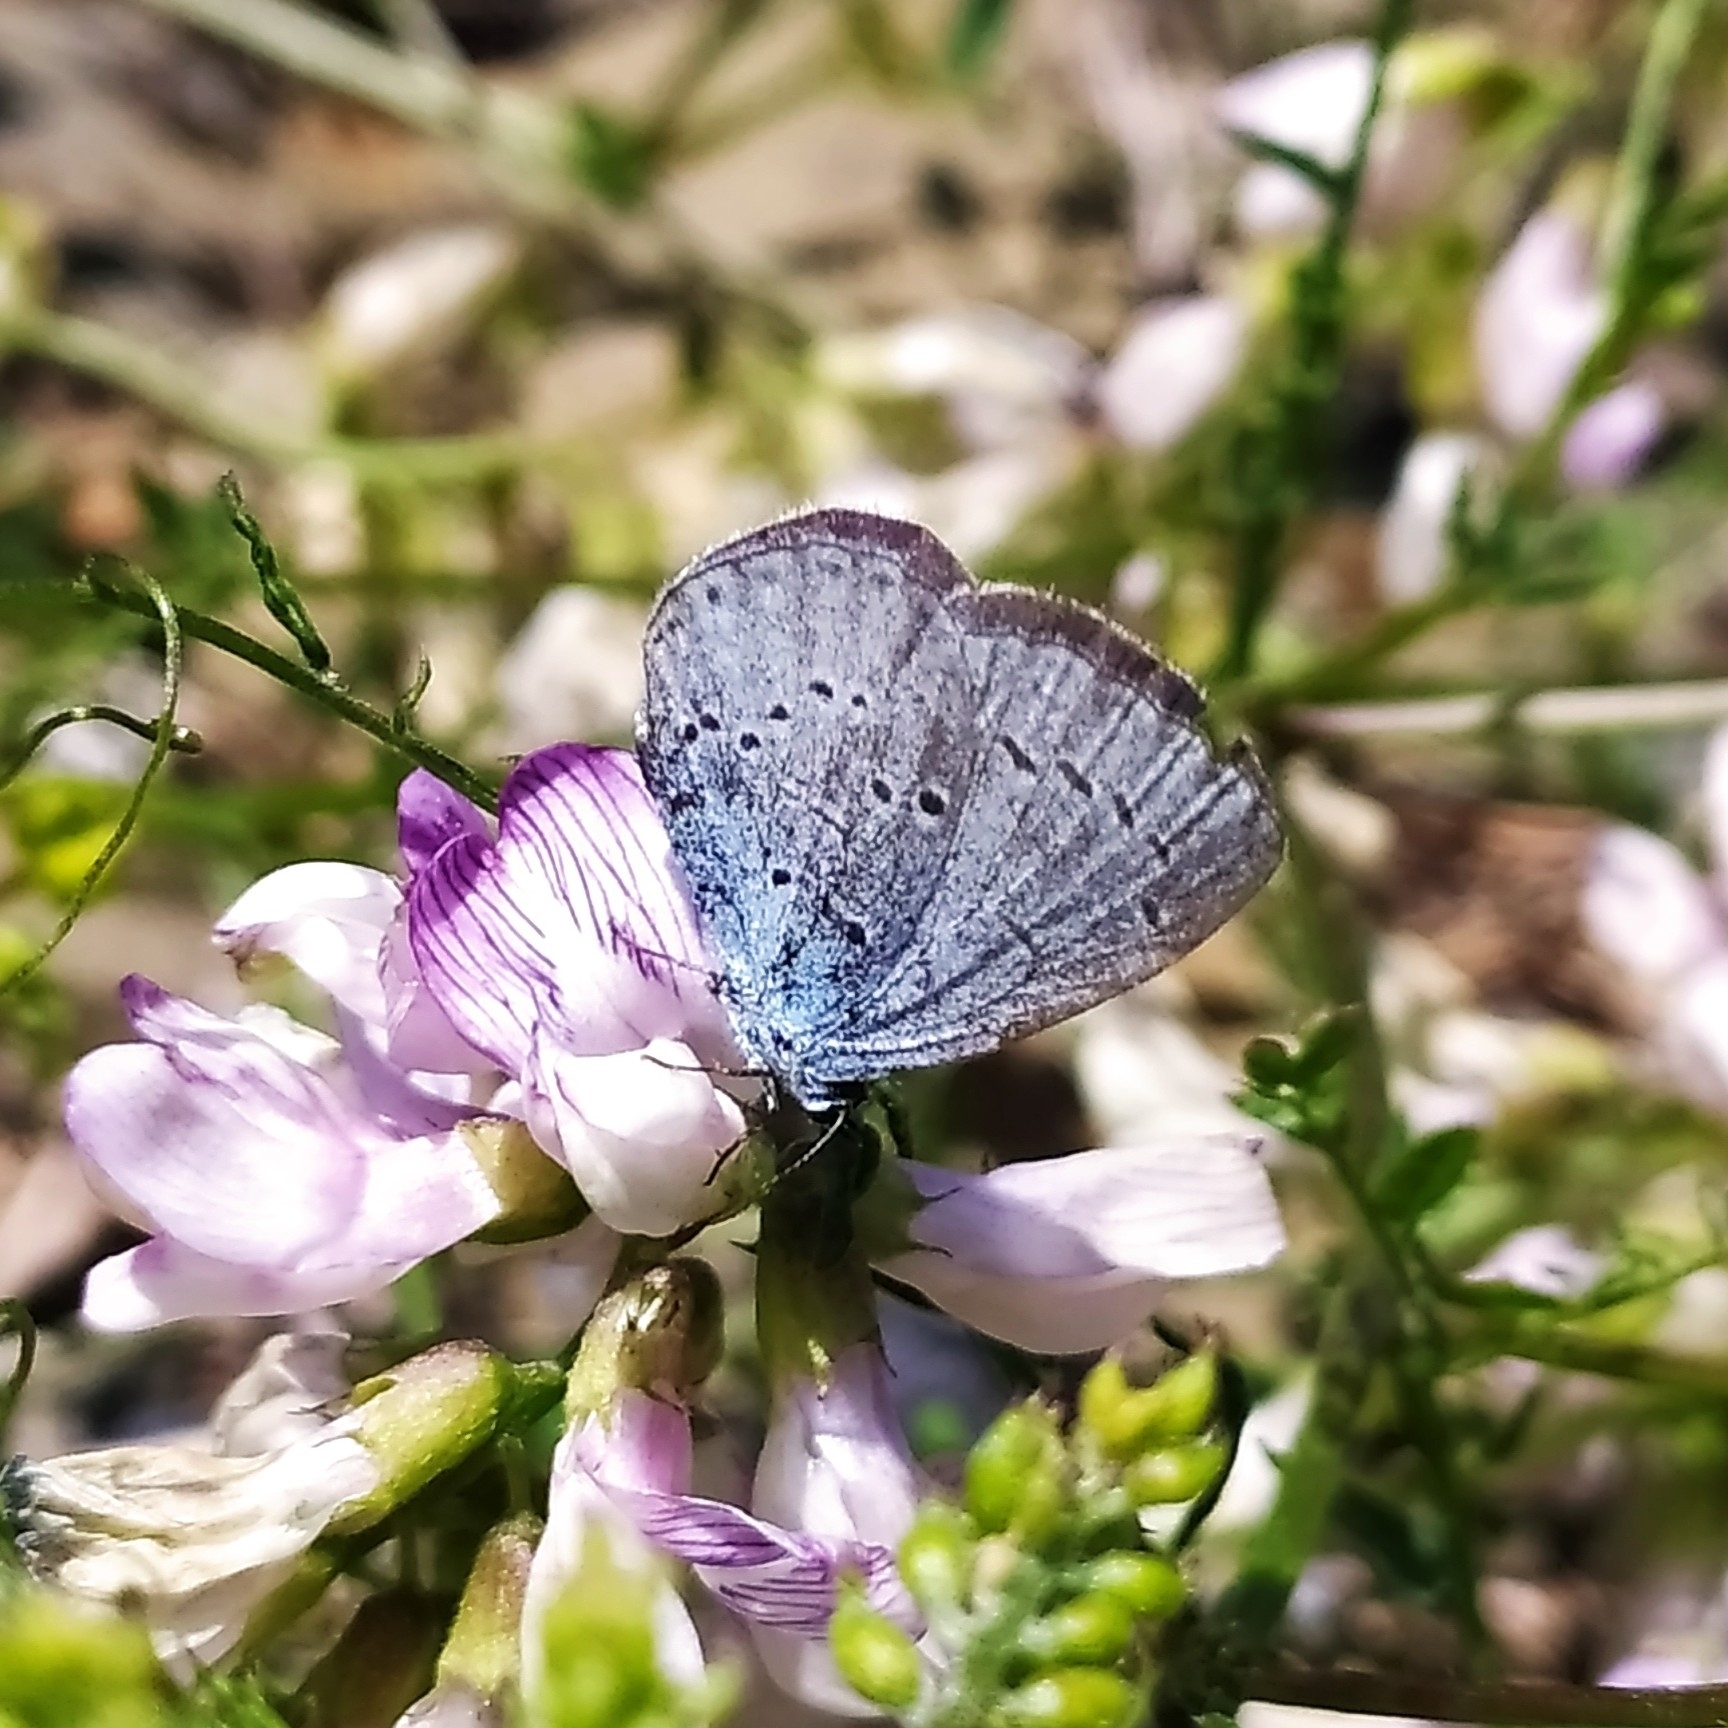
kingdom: Animalia
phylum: Arthropoda
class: Insecta
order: Lepidoptera
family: Lycaenidae
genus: Celastrina
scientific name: Celastrina argiolus
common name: Holly blue
